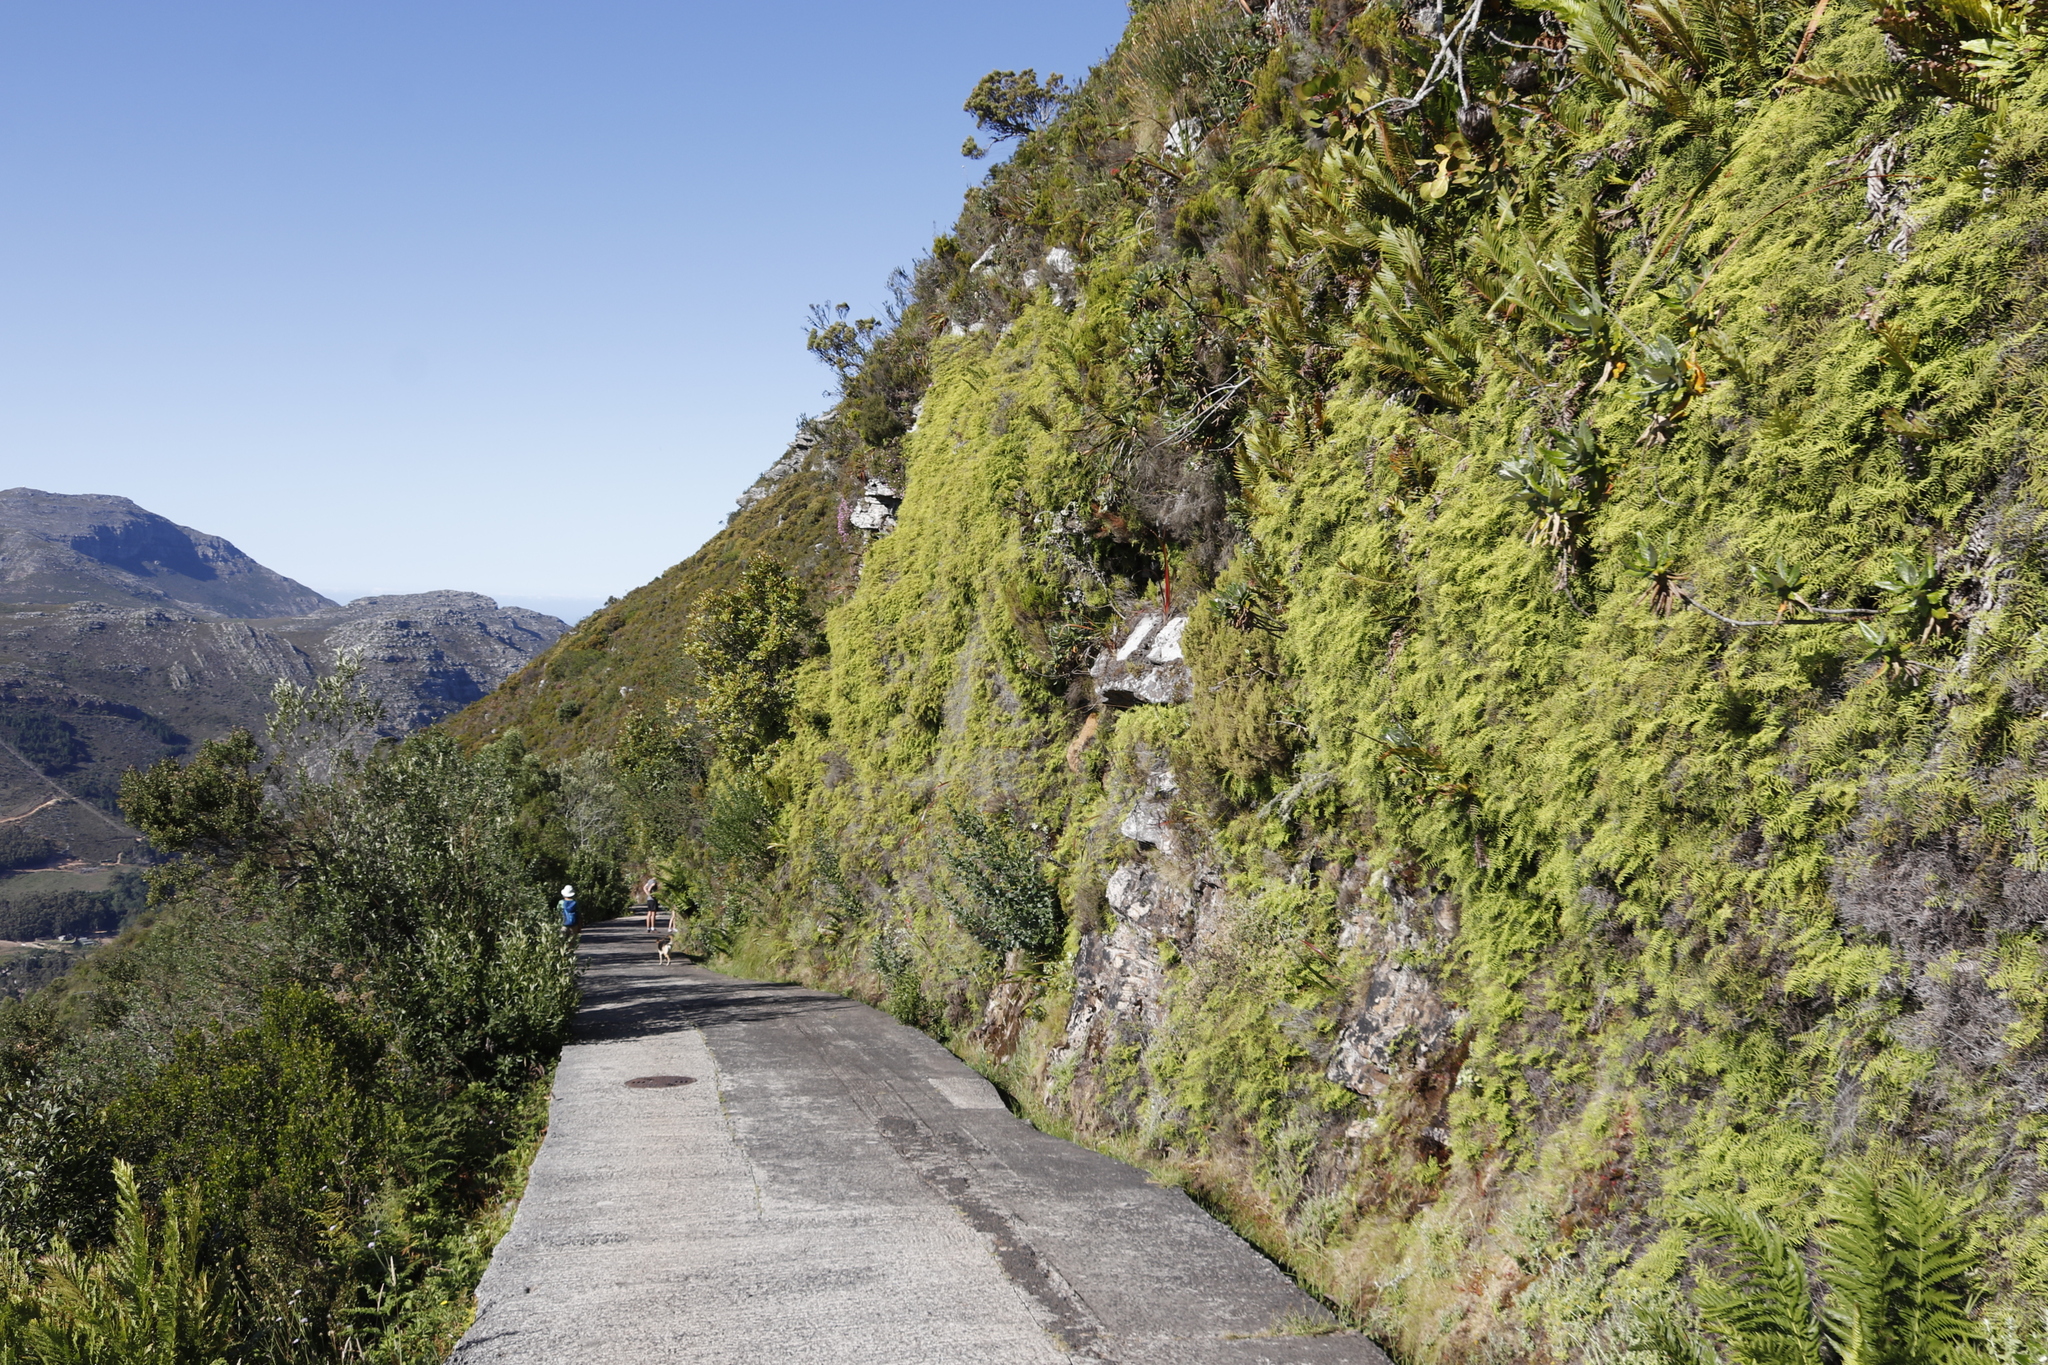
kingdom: Plantae
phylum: Tracheophyta
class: Polypodiopsida
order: Gleicheniales
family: Gleicheniaceae
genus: Gleichenia
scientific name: Gleichenia polypodioides
